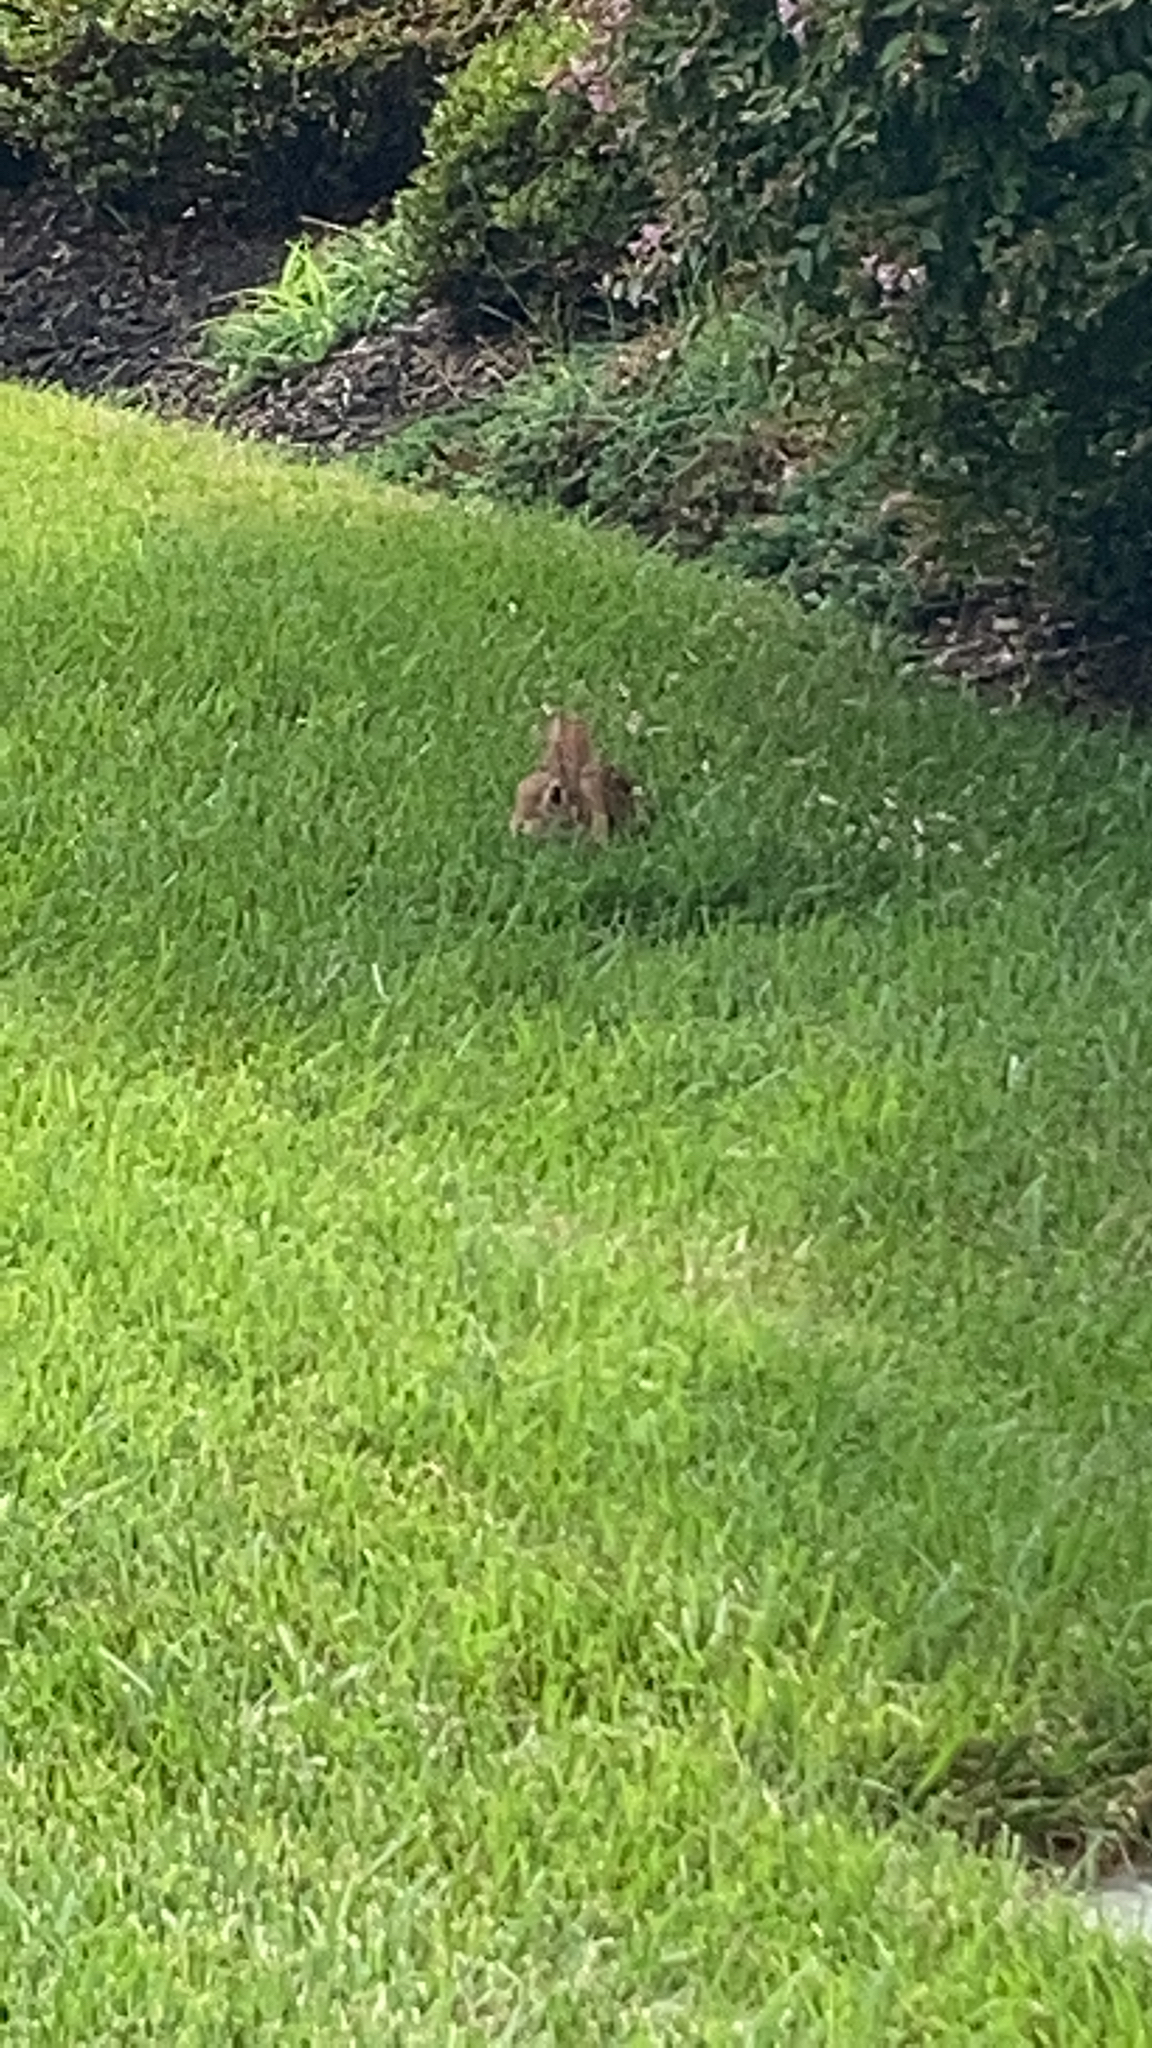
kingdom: Animalia
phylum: Chordata
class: Mammalia
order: Lagomorpha
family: Leporidae
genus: Sylvilagus
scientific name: Sylvilagus floridanus
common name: Eastern cottontail
